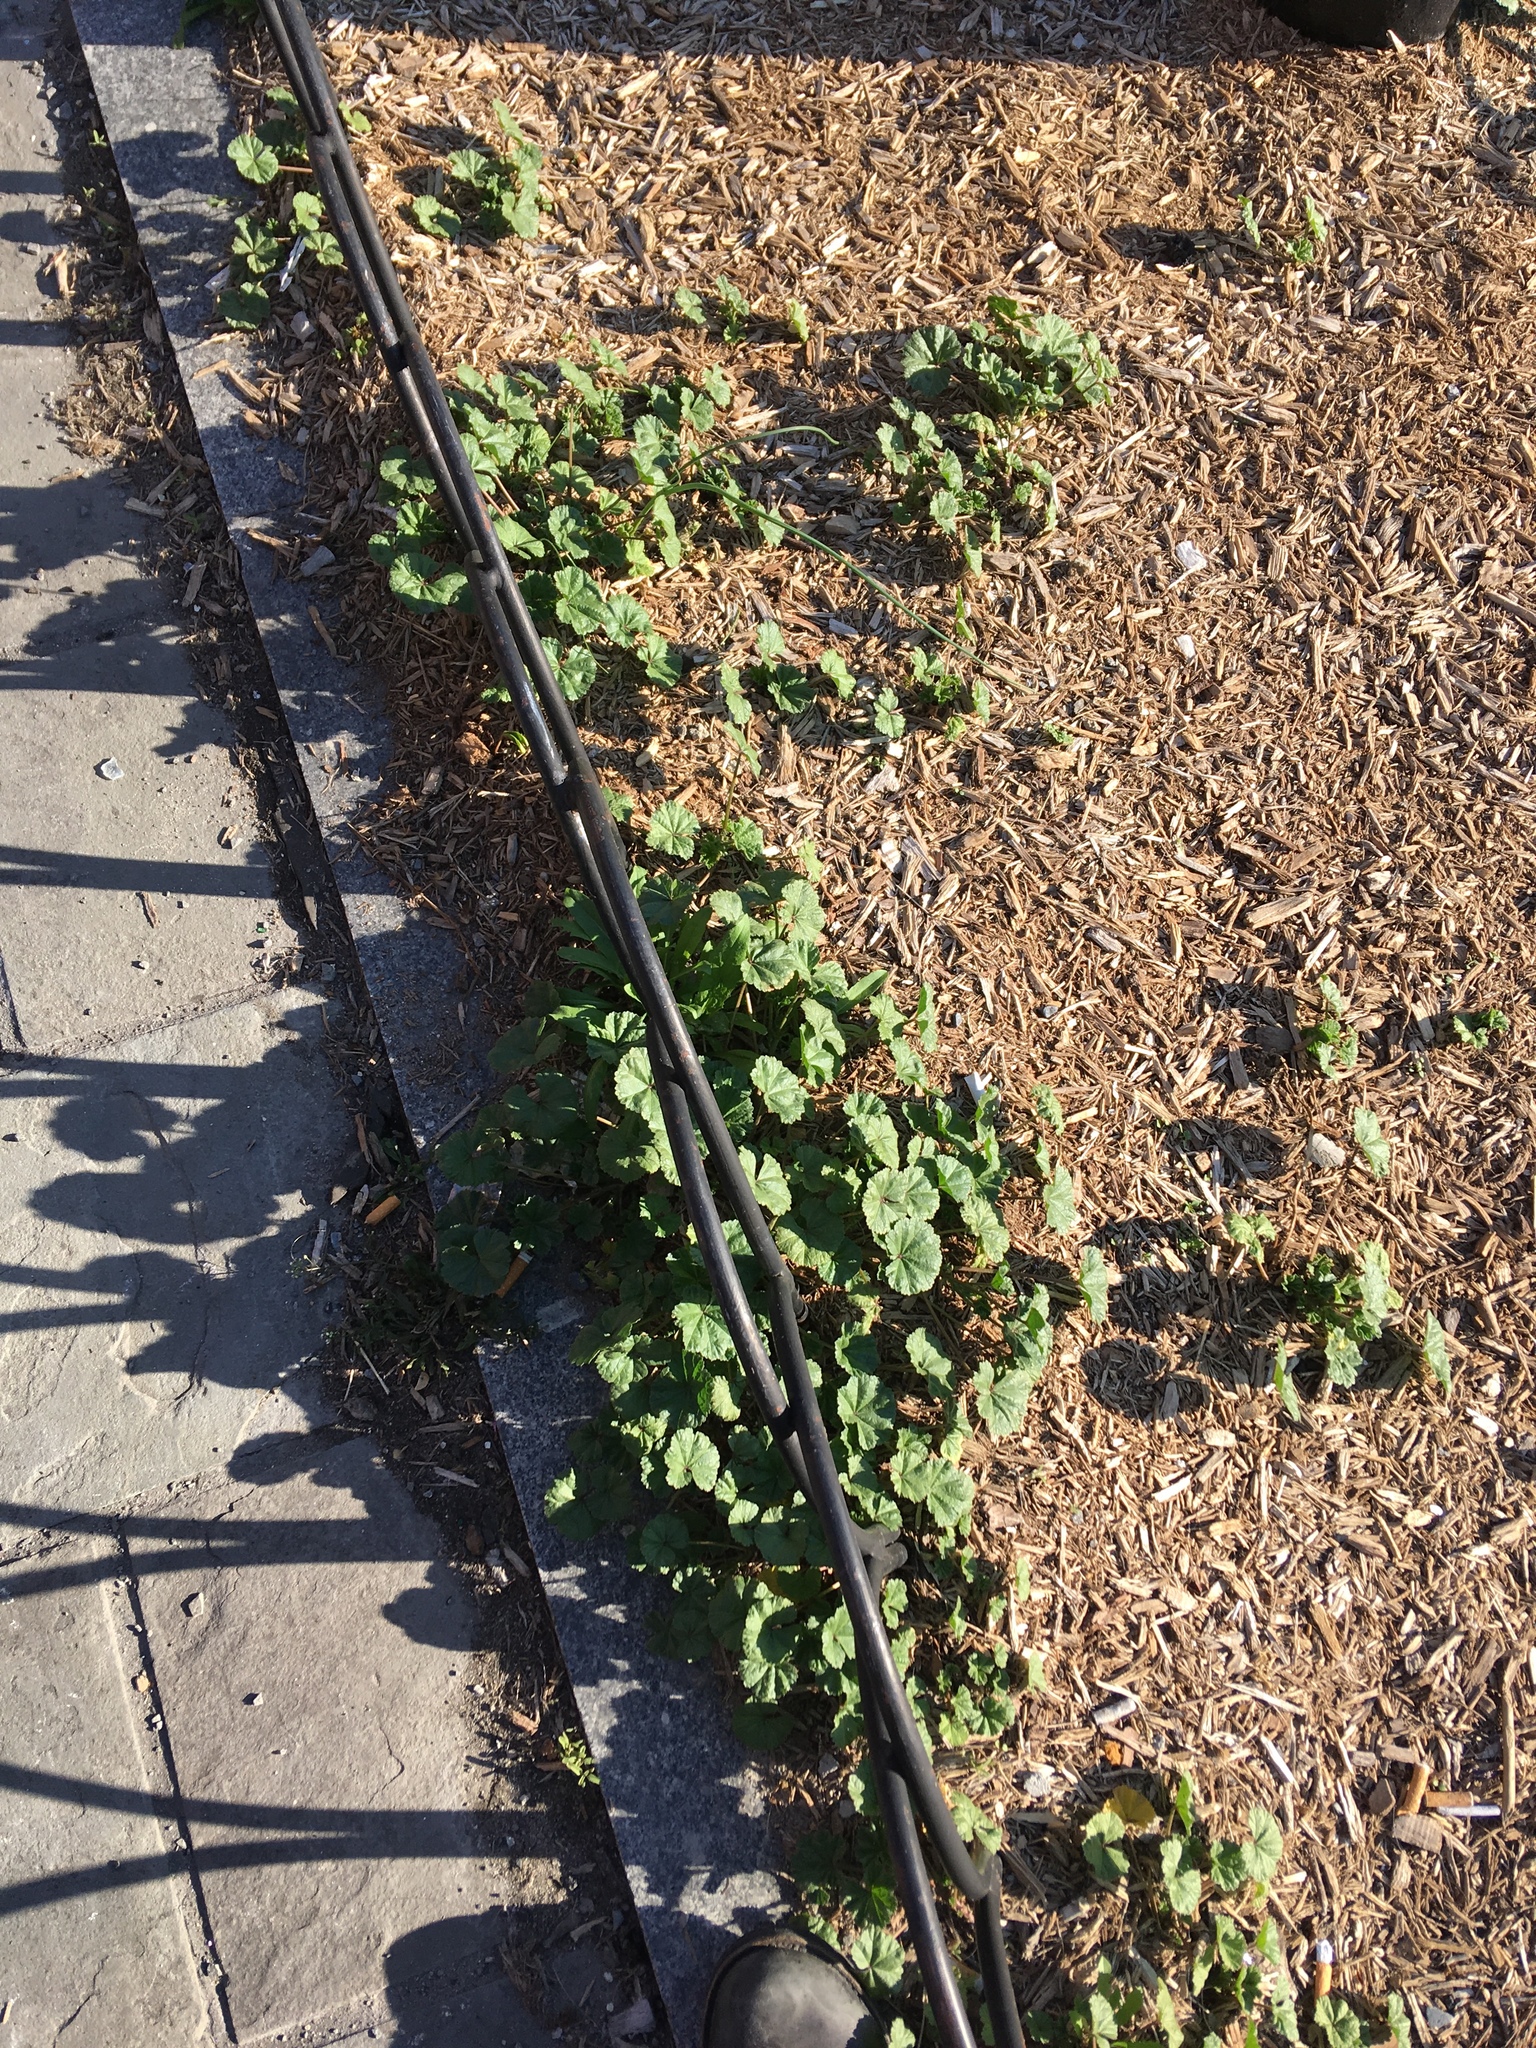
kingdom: Plantae
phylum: Tracheophyta
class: Magnoliopsida
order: Malvales
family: Malvaceae
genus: Malva
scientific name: Malva neglecta
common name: Common mallow
